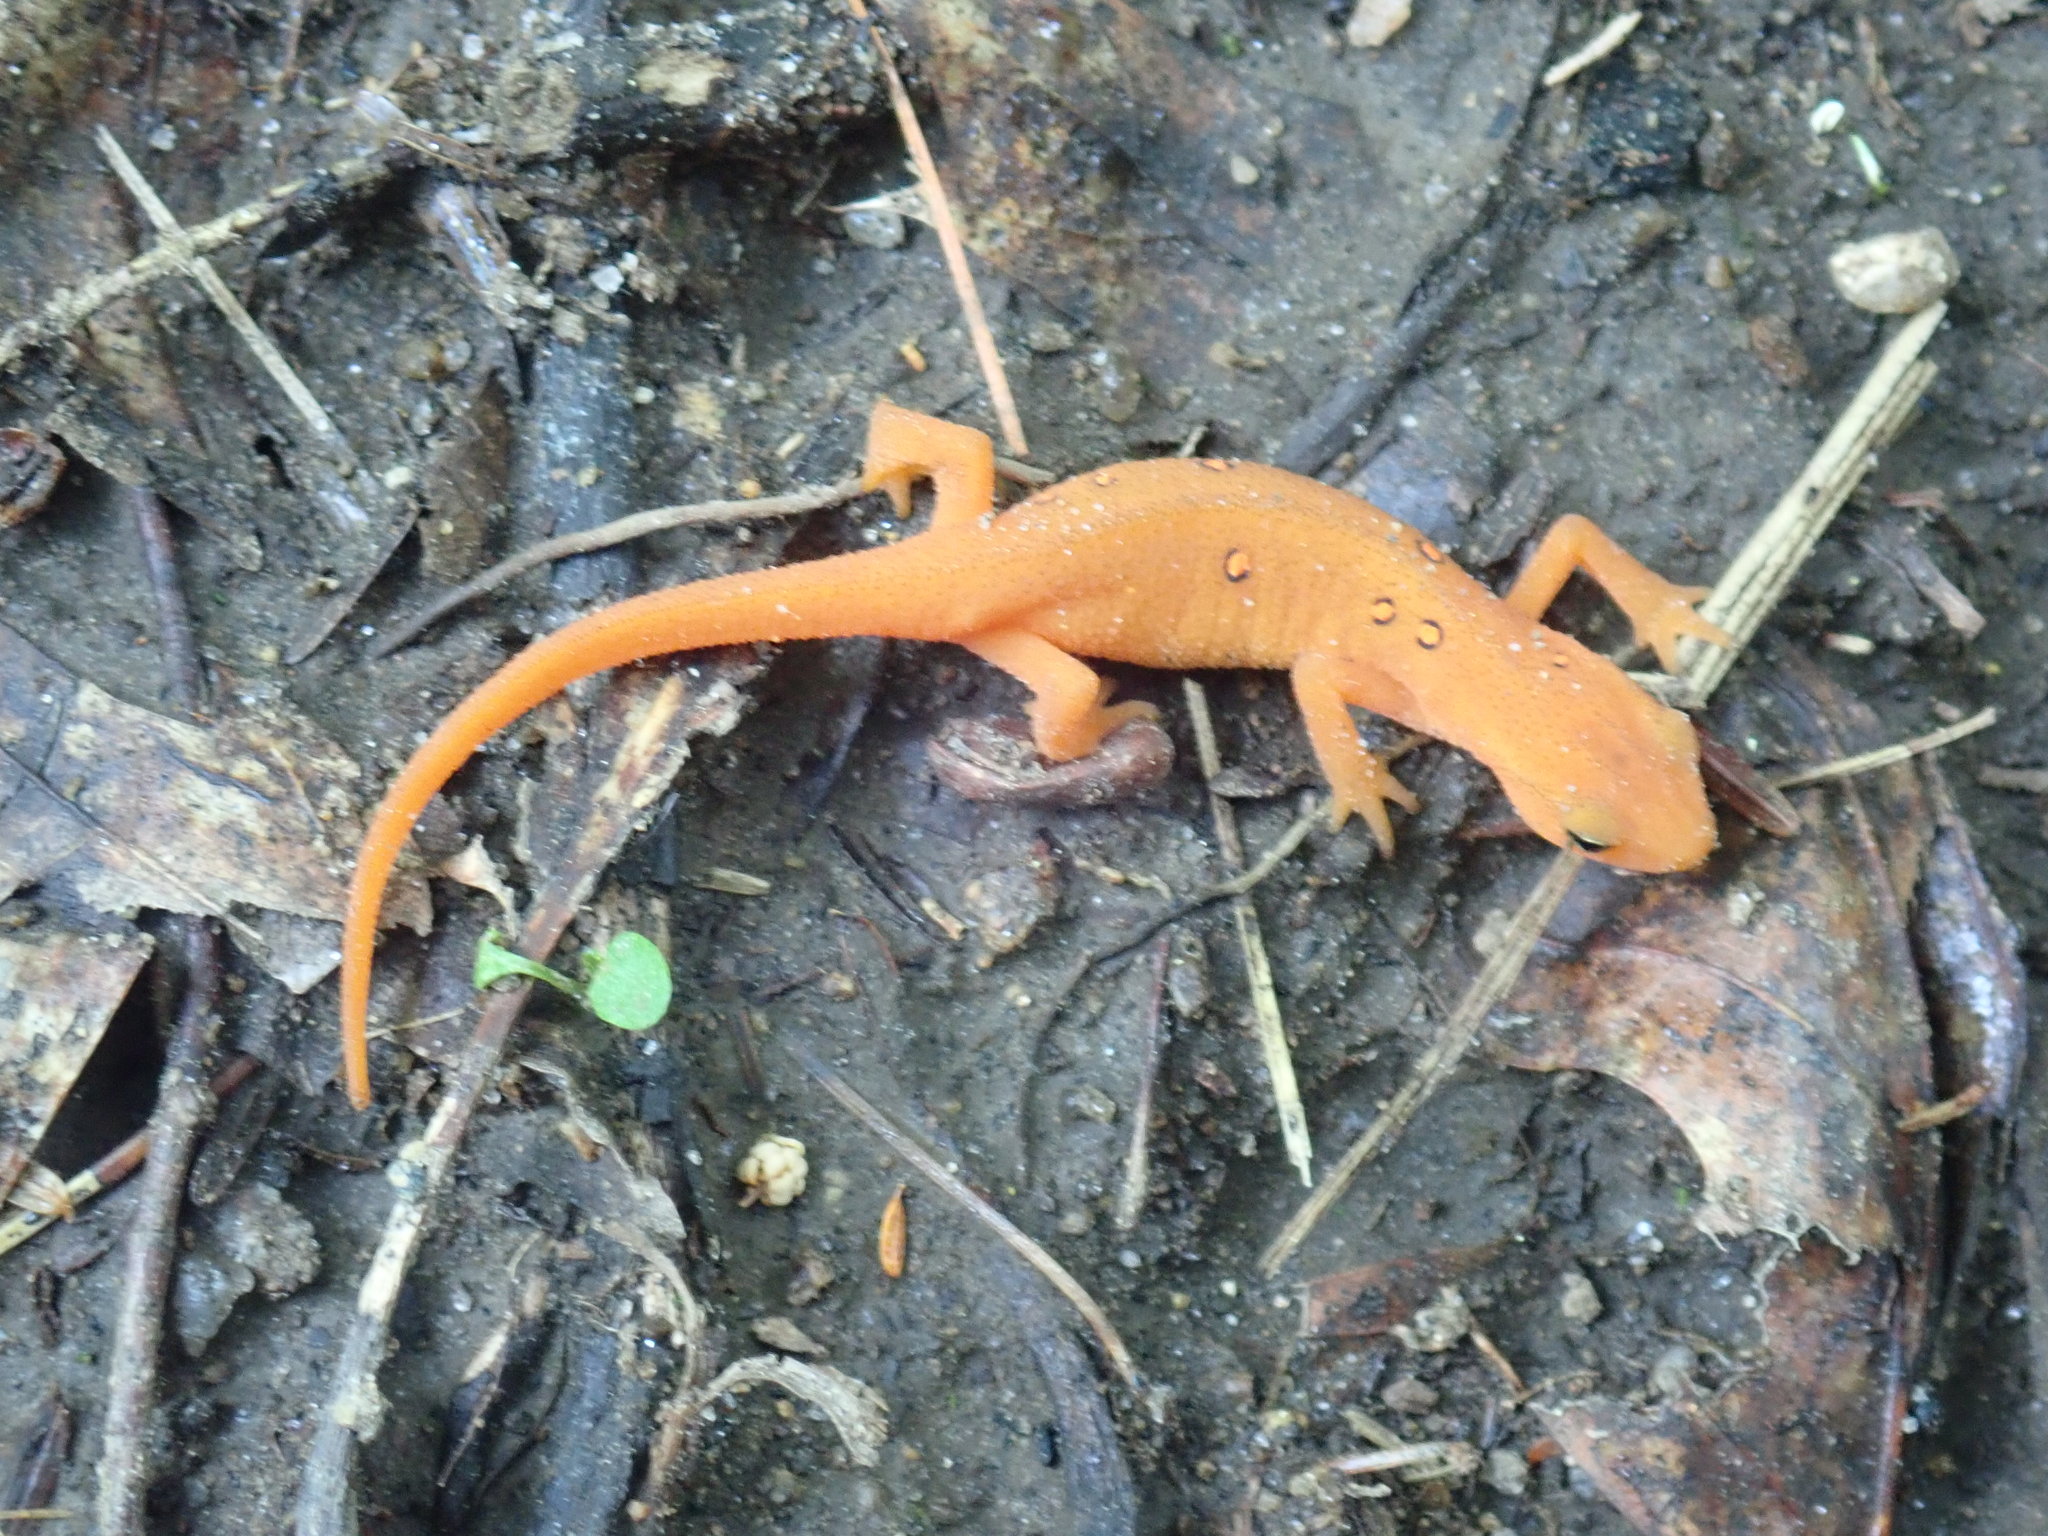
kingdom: Animalia
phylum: Chordata
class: Amphibia
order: Caudata
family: Salamandridae
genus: Notophthalmus
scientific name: Notophthalmus viridescens
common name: Eastern newt
